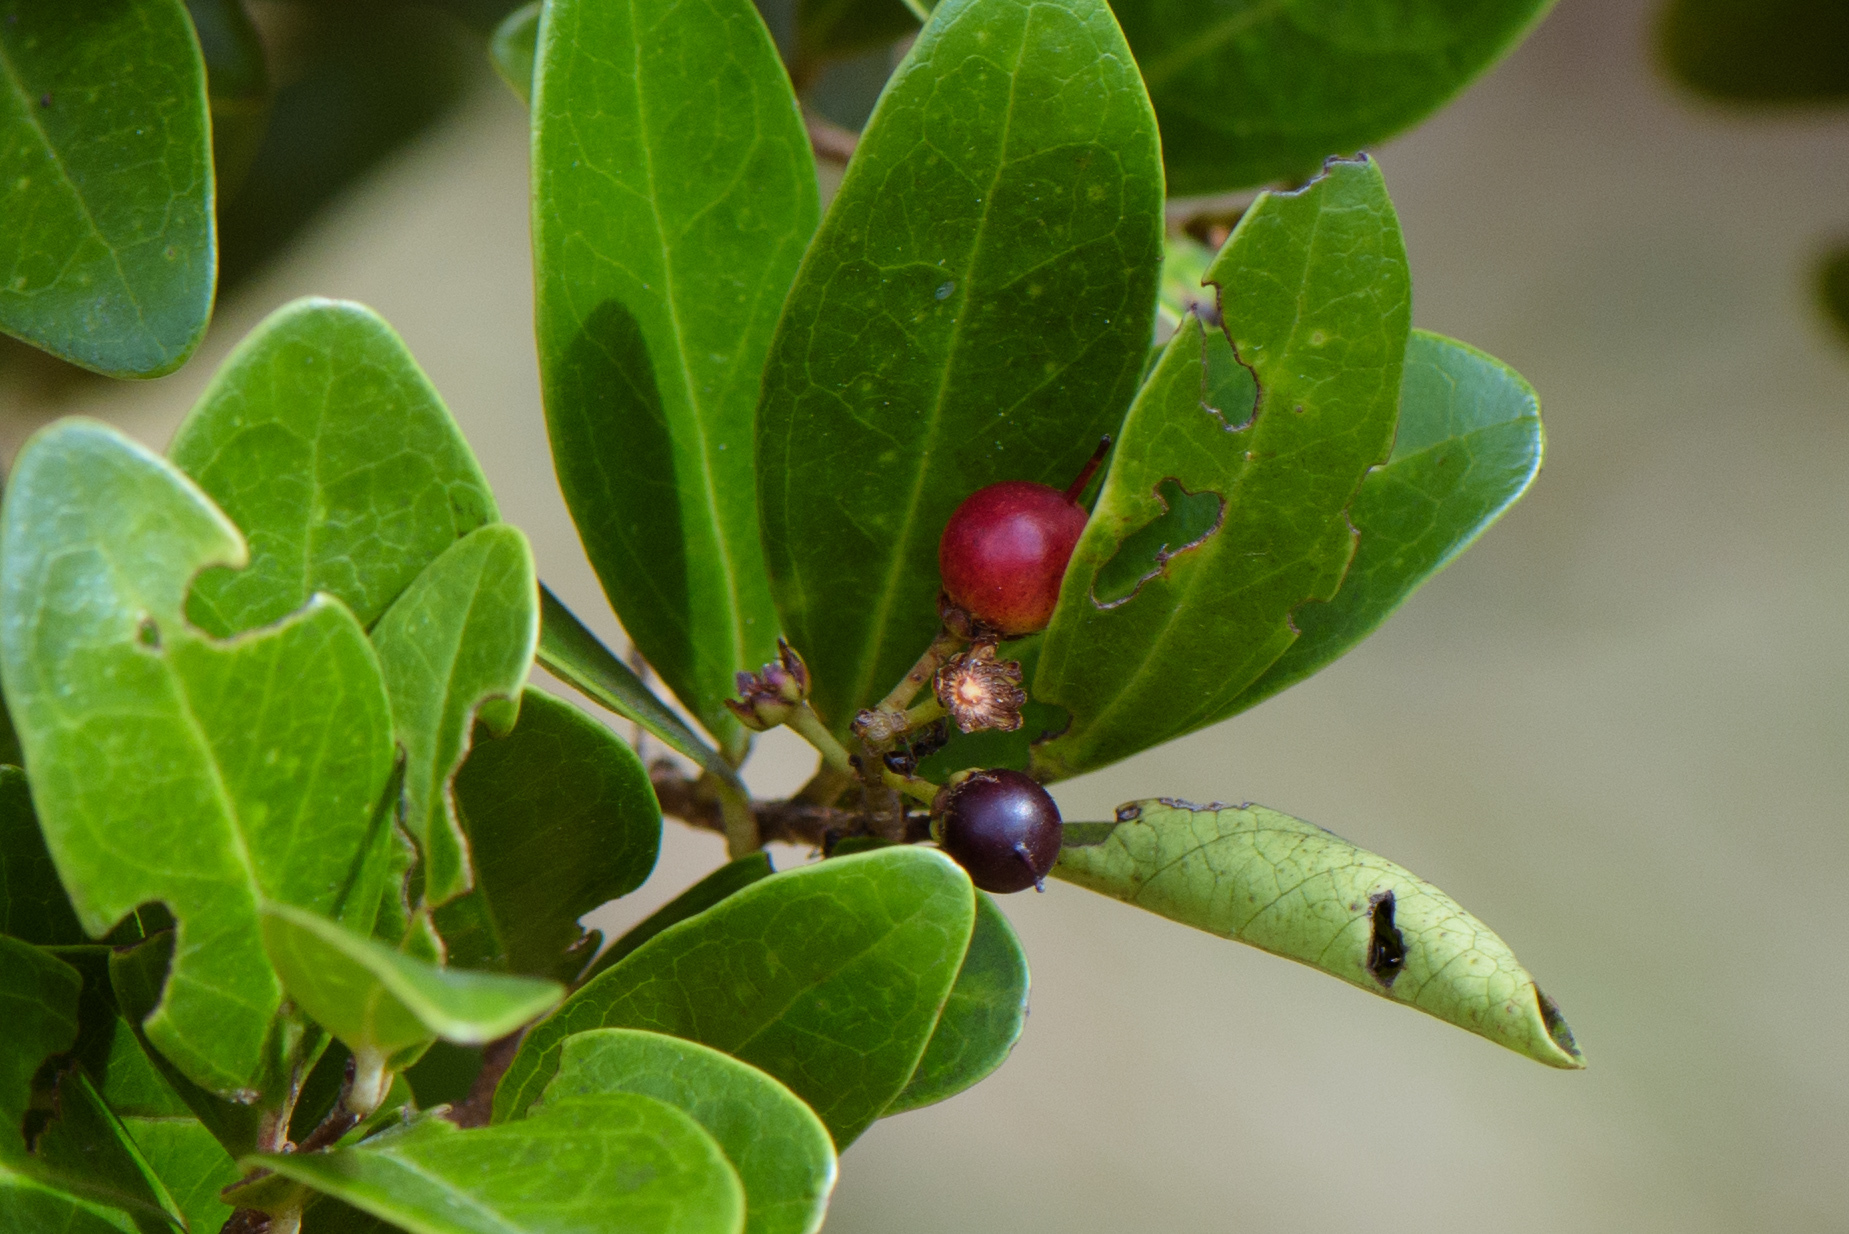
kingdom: Plantae
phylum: Tracheophyta
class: Magnoliopsida
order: Malpighiales
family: Salicaceae
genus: Scolopia
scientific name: Scolopia oldhamii
